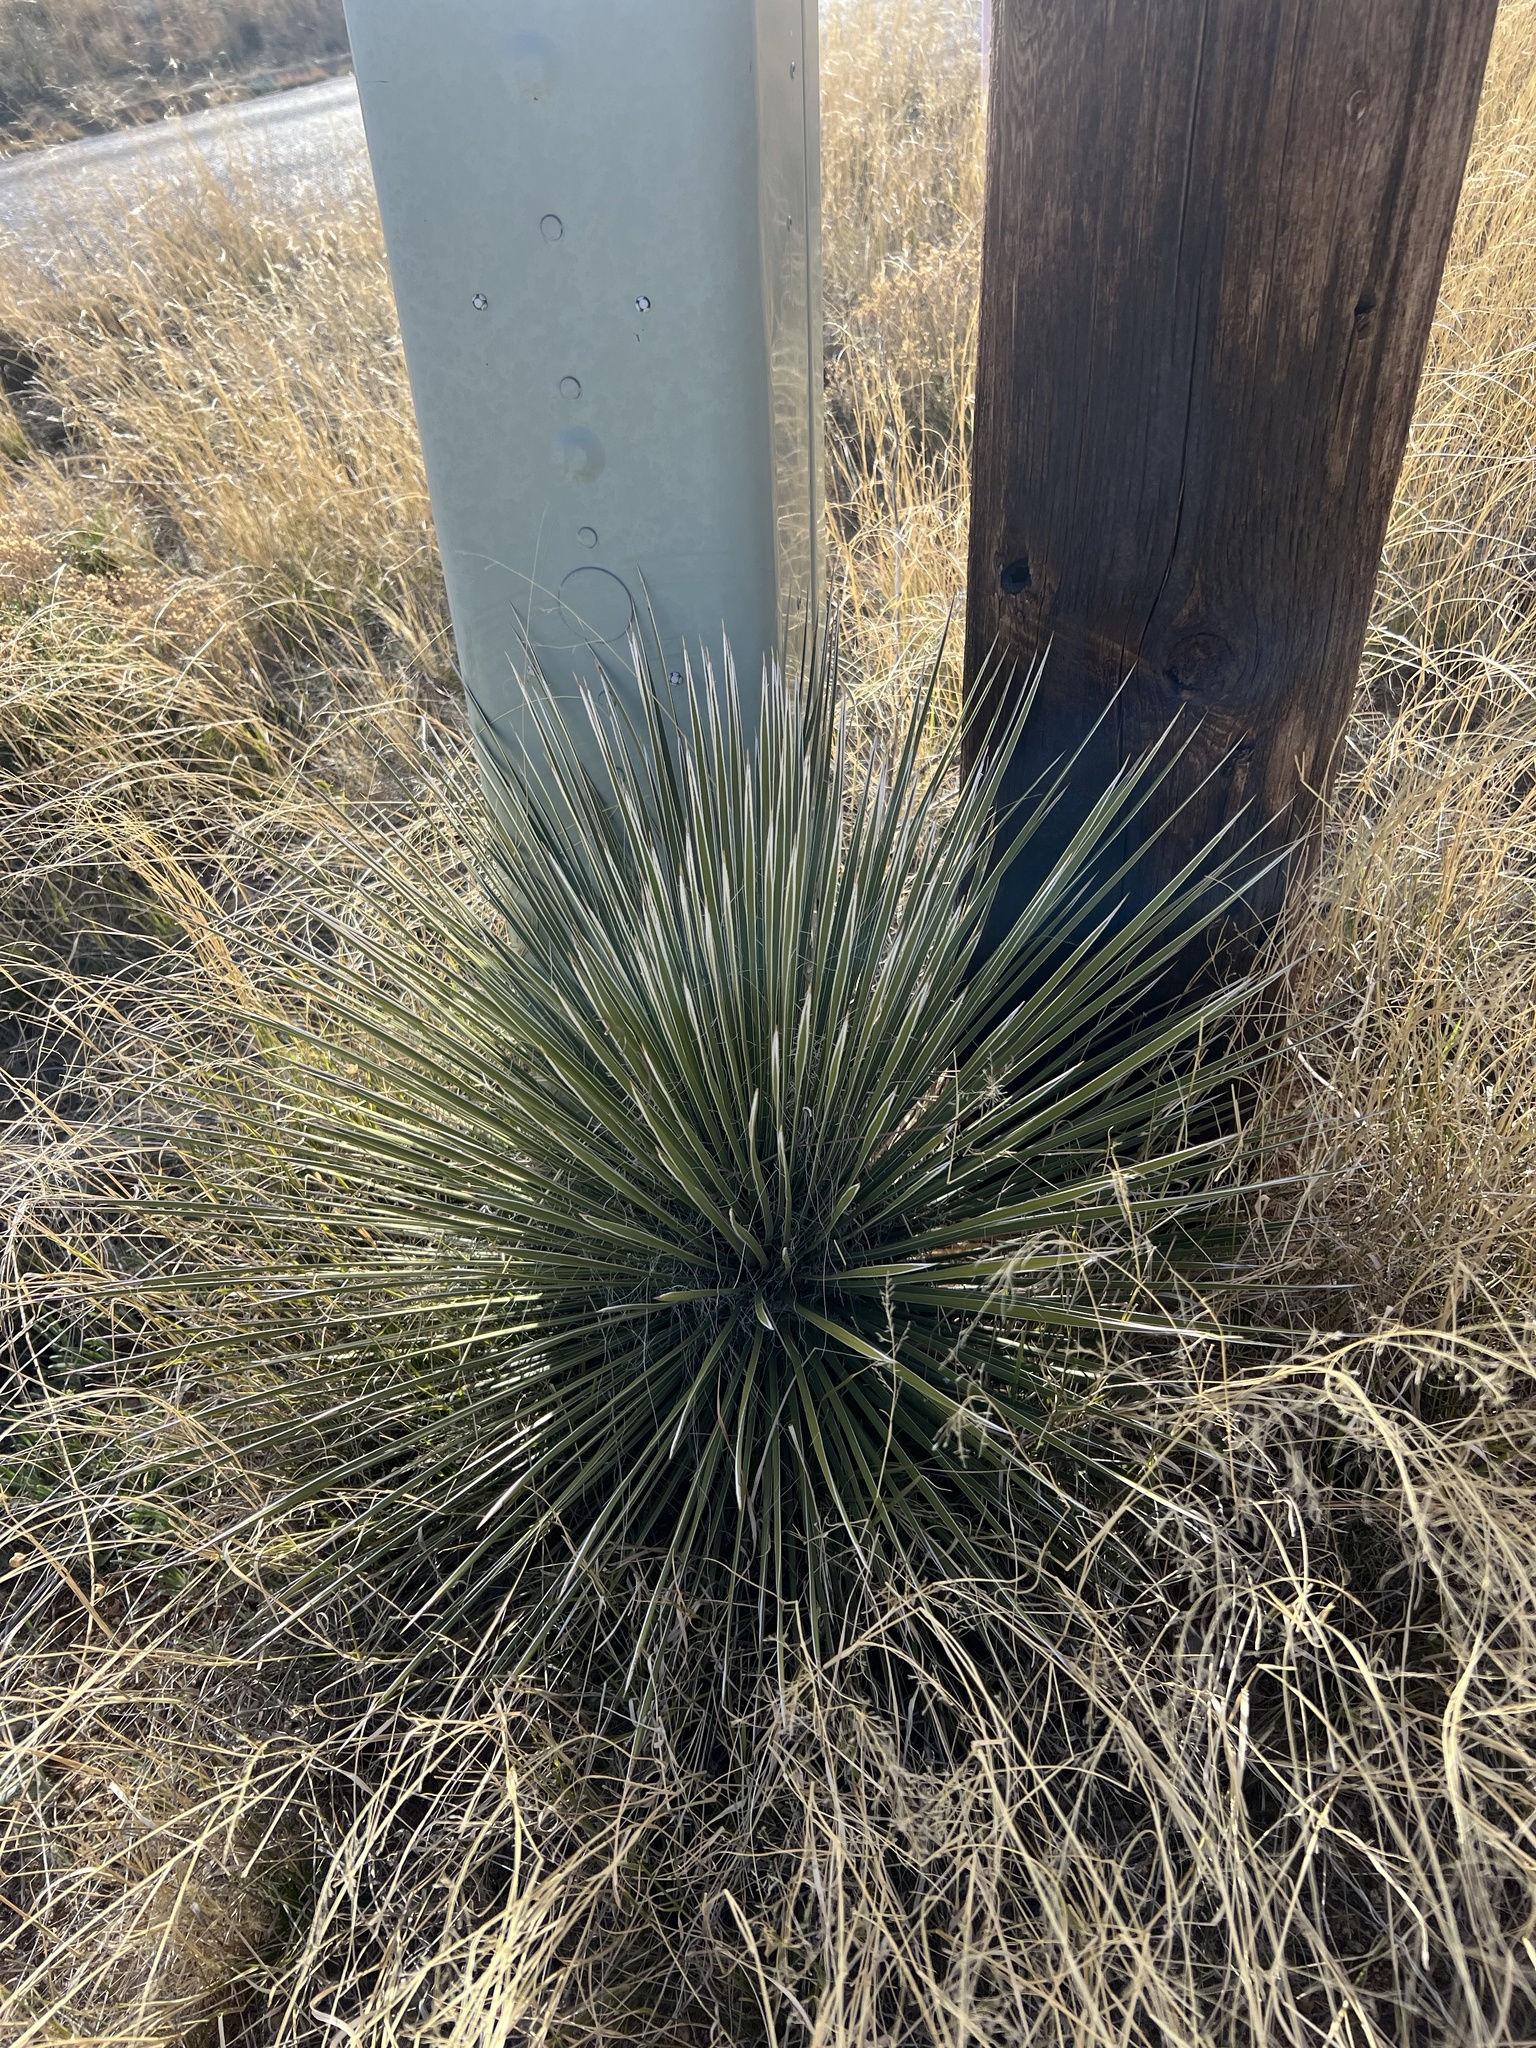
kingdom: Plantae
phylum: Tracheophyta
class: Liliopsida
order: Asparagales
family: Asparagaceae
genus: Yucca
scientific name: Yucca elata
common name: Palmella
